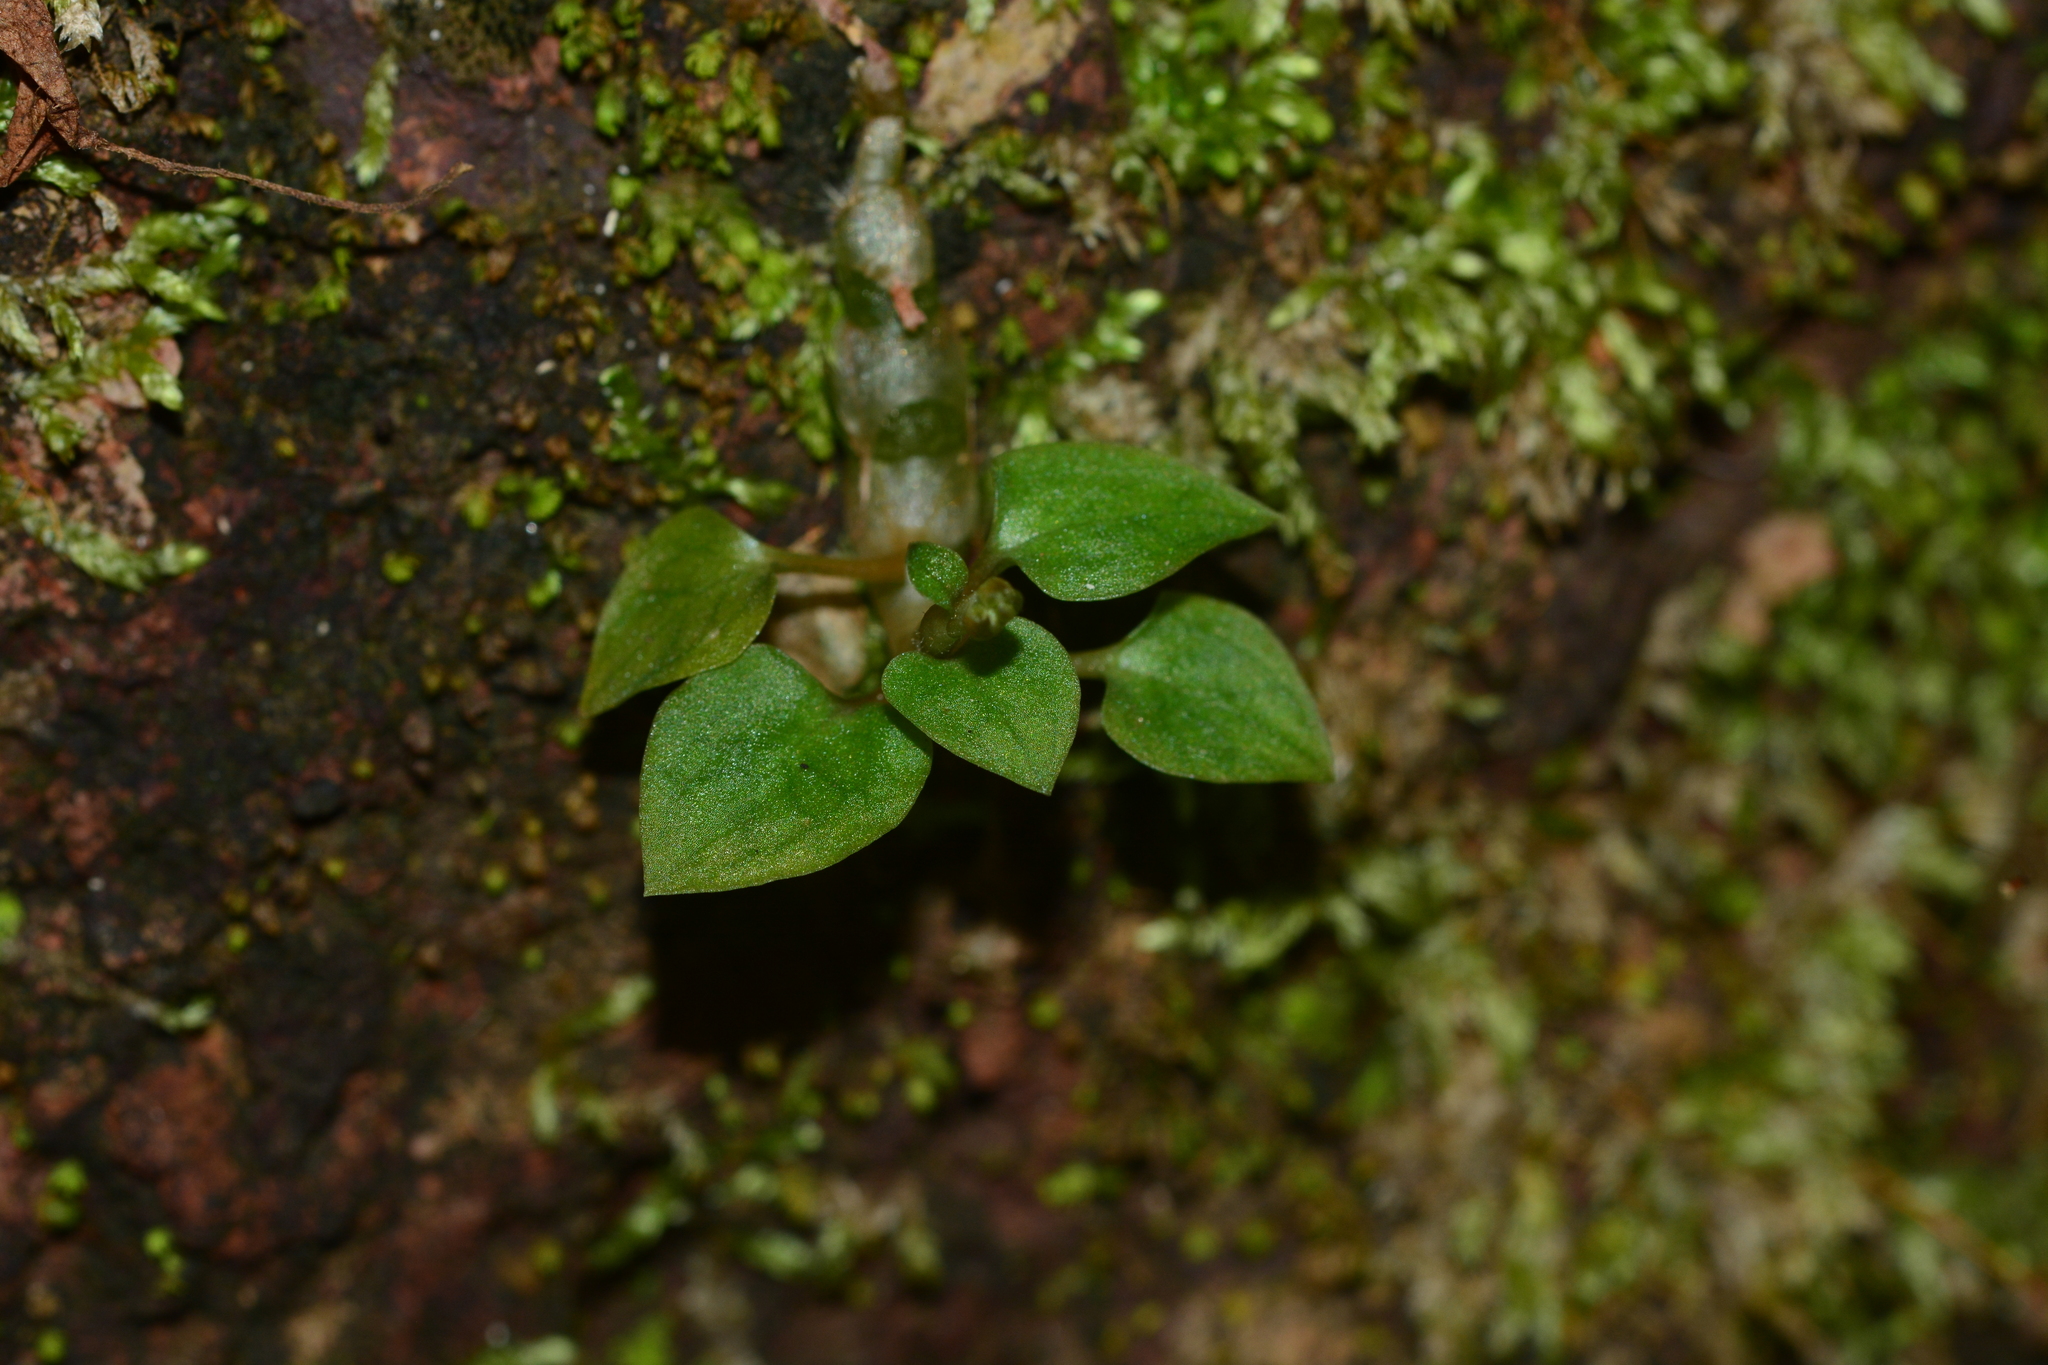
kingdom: Plantae
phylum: Tracheophyta
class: Liliopsida
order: Asparagales
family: Orchidaceae
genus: Cheirostylis
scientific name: Cheirostylis parvifolia
